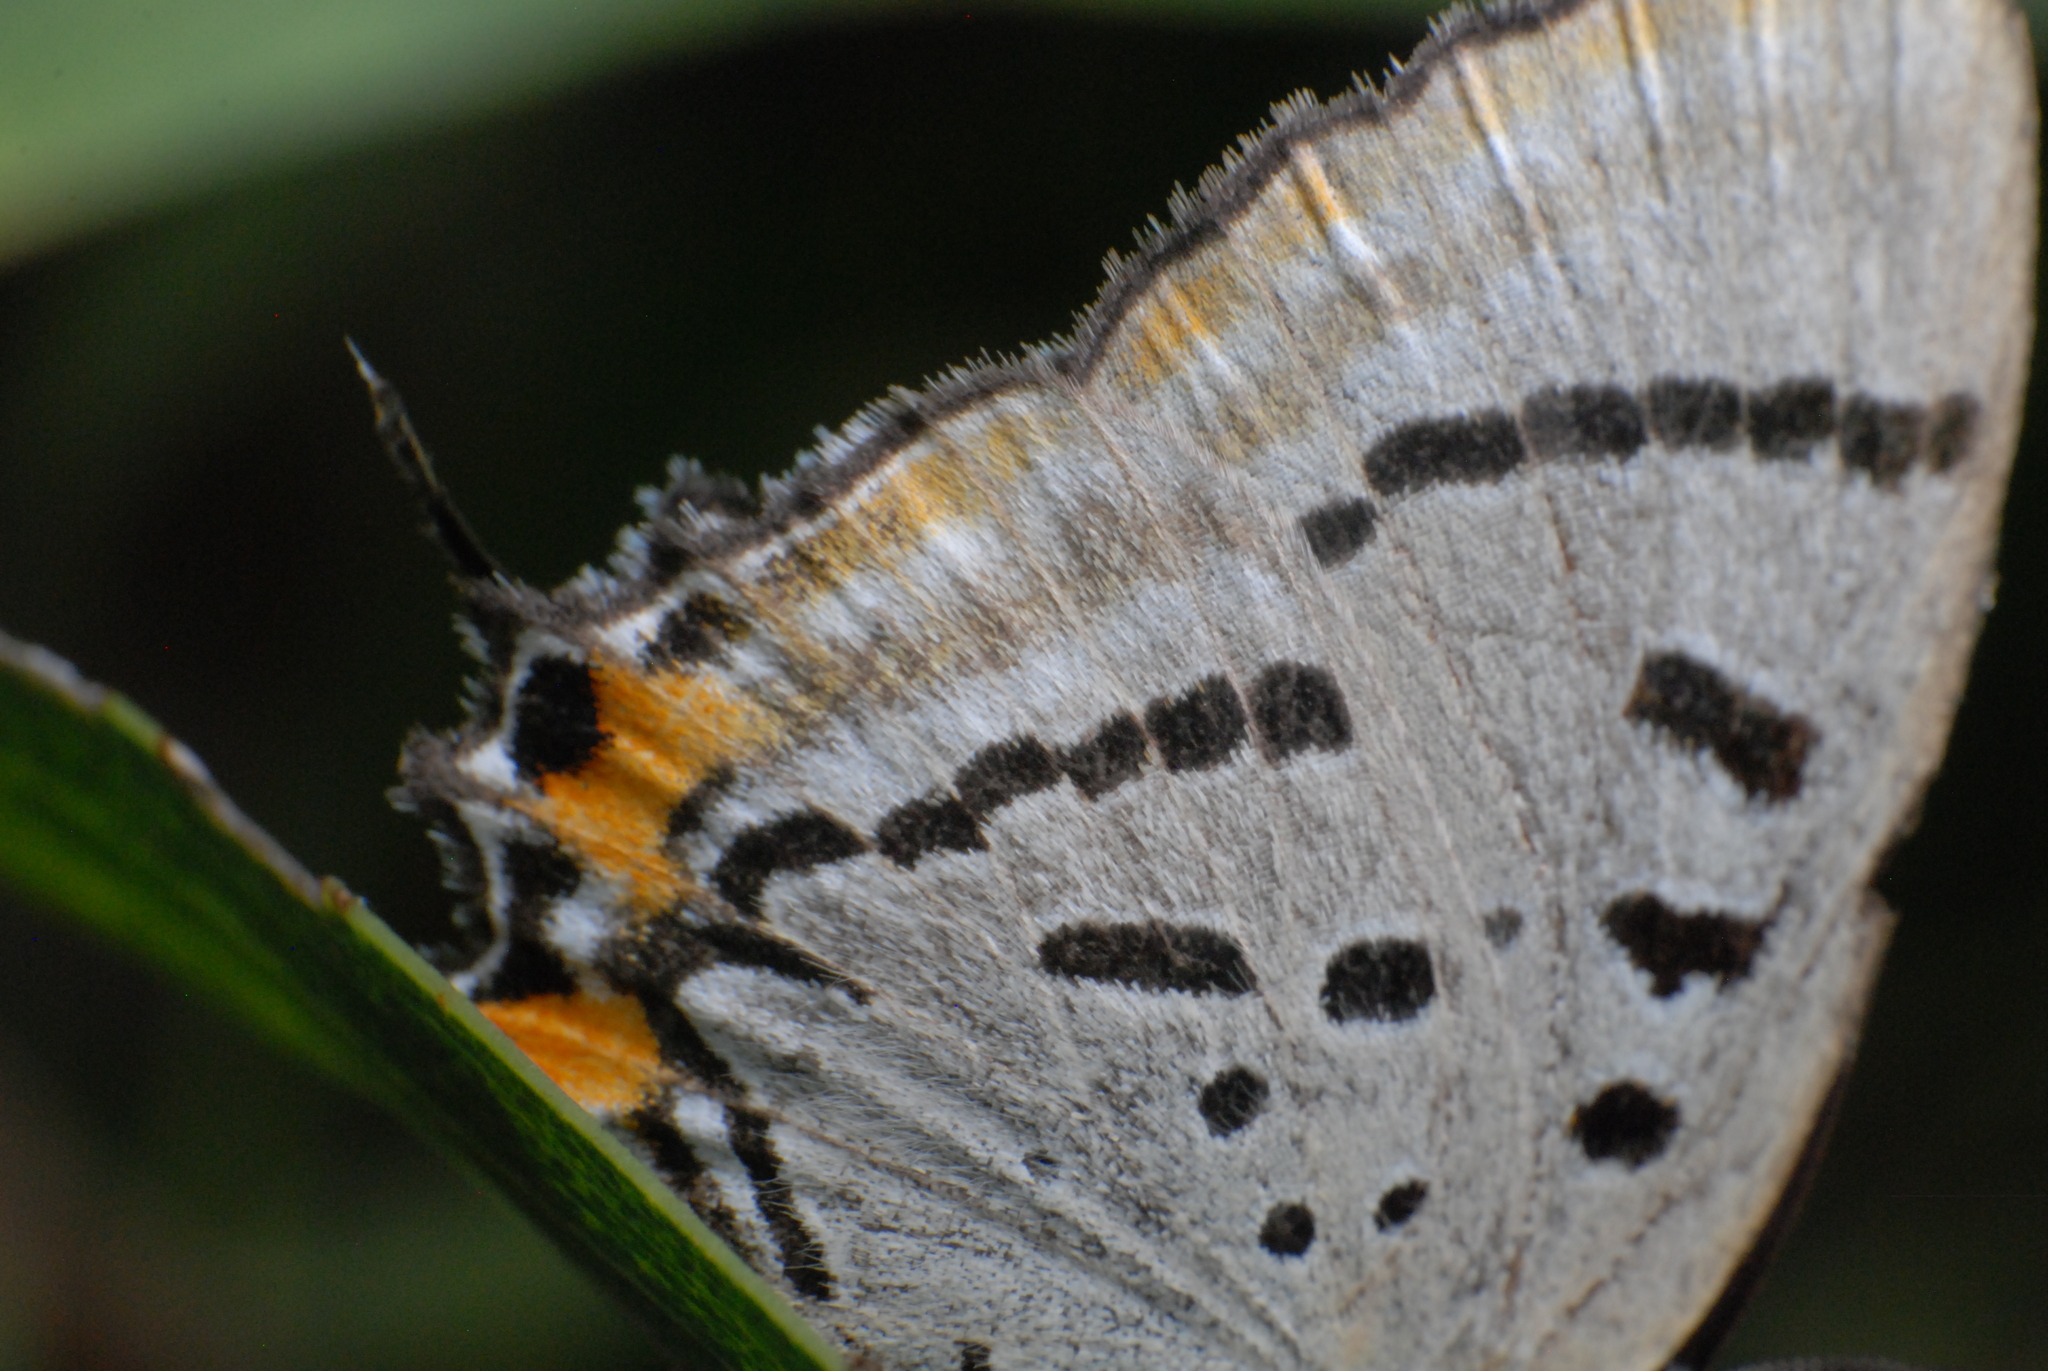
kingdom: Animalia
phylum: Arthropoda
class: Insecta
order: Lepidoptera
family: Lycaenidae
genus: Jalmenus
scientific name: Jalmenus evagoras
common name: Common imperial blue
